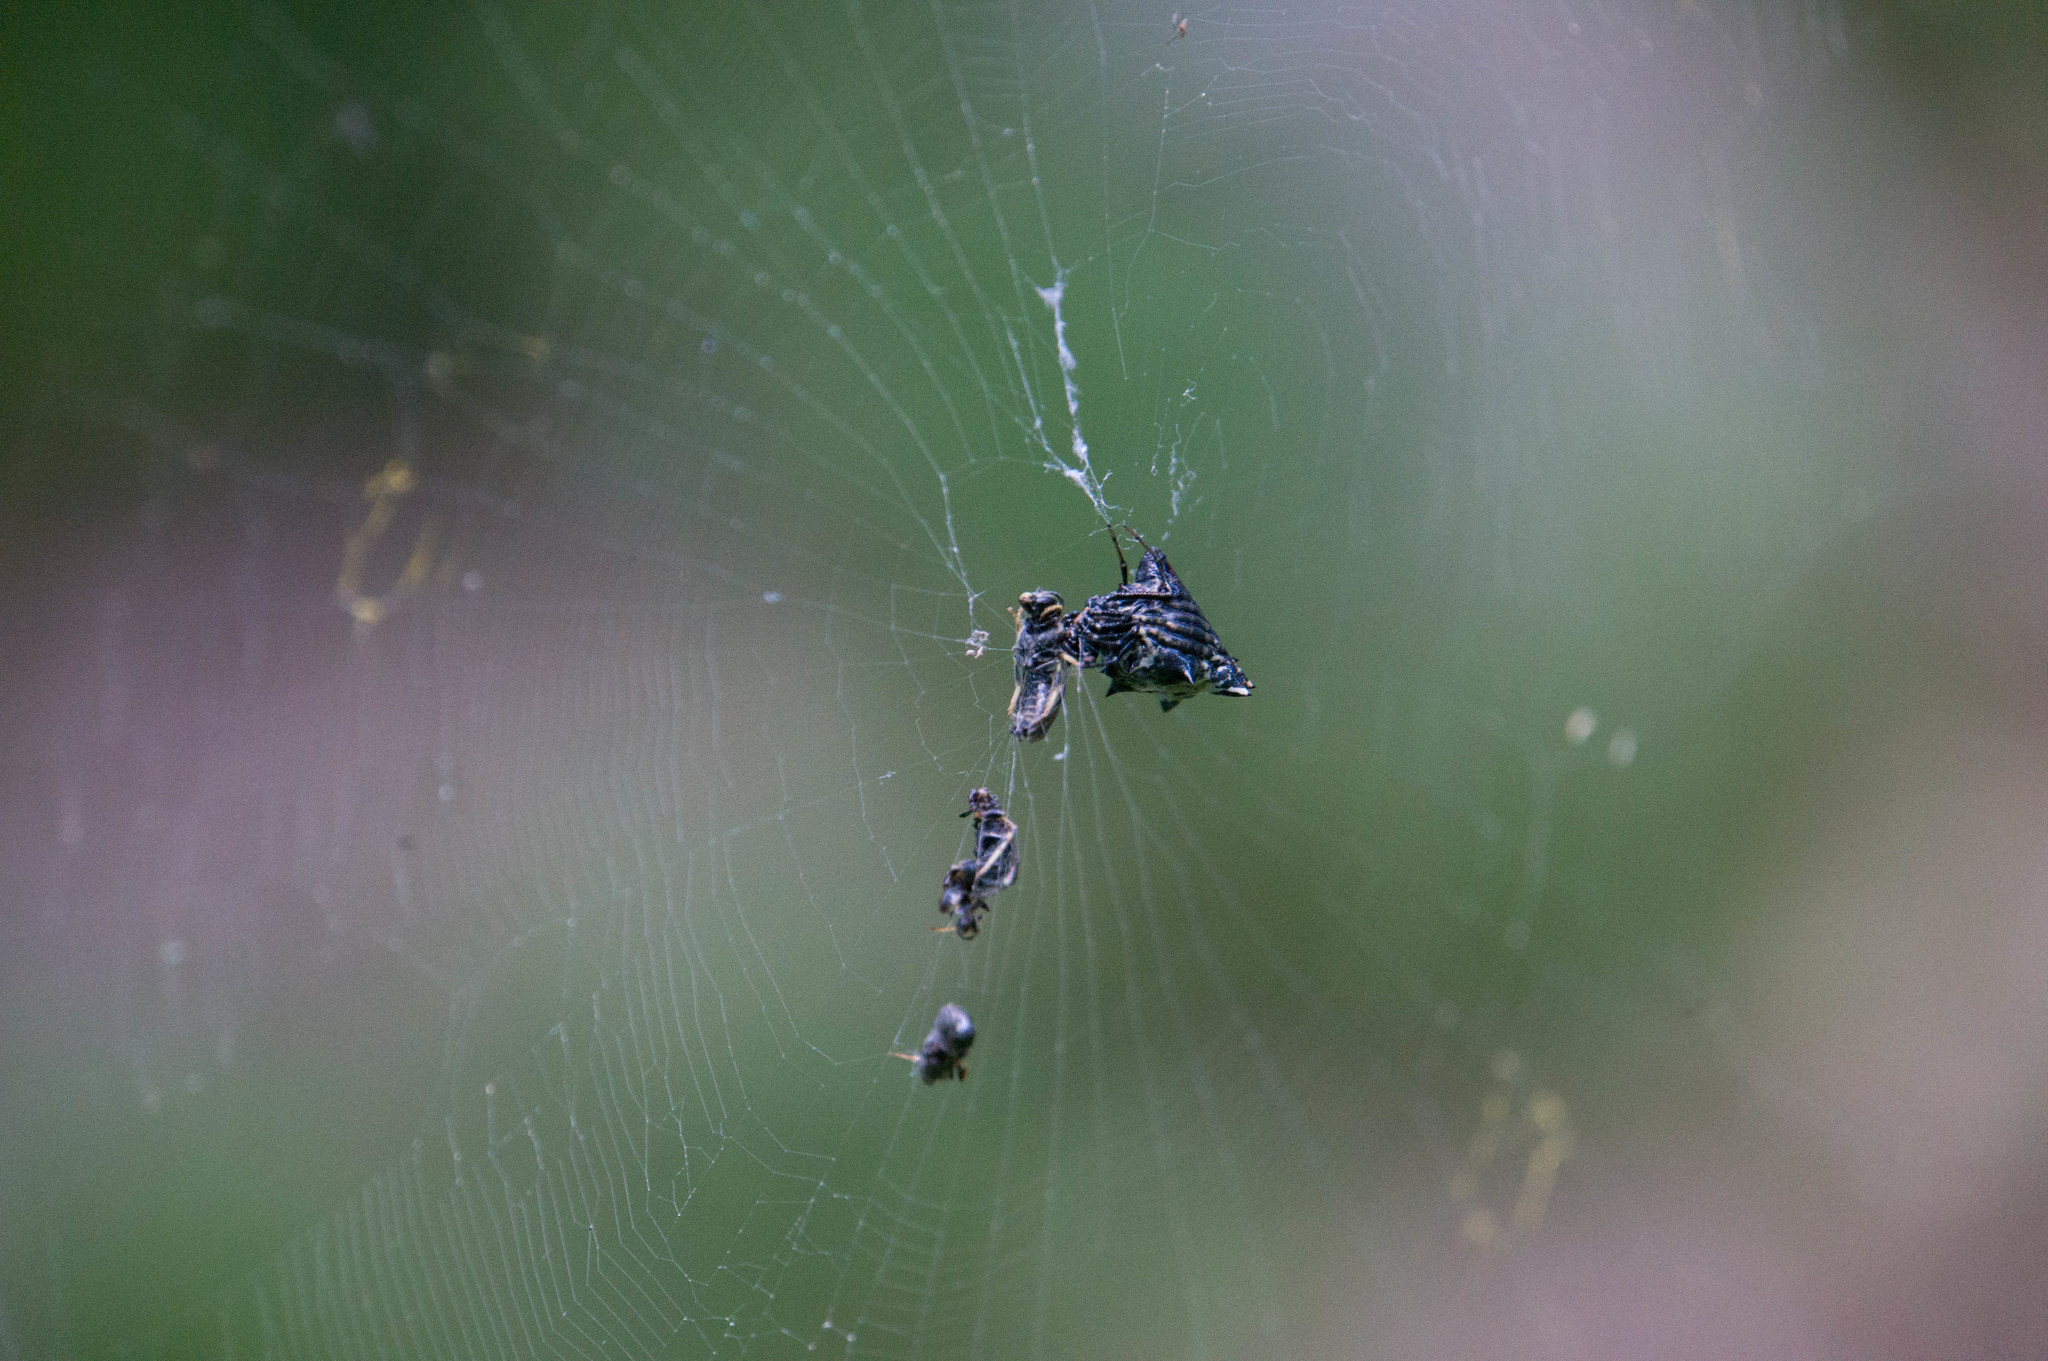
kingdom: Animalia
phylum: Arthropoda
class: Arachnida
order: Araneae
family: Araneidae
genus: Micrathena
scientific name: Micrathena gracilis
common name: Orb weavers
